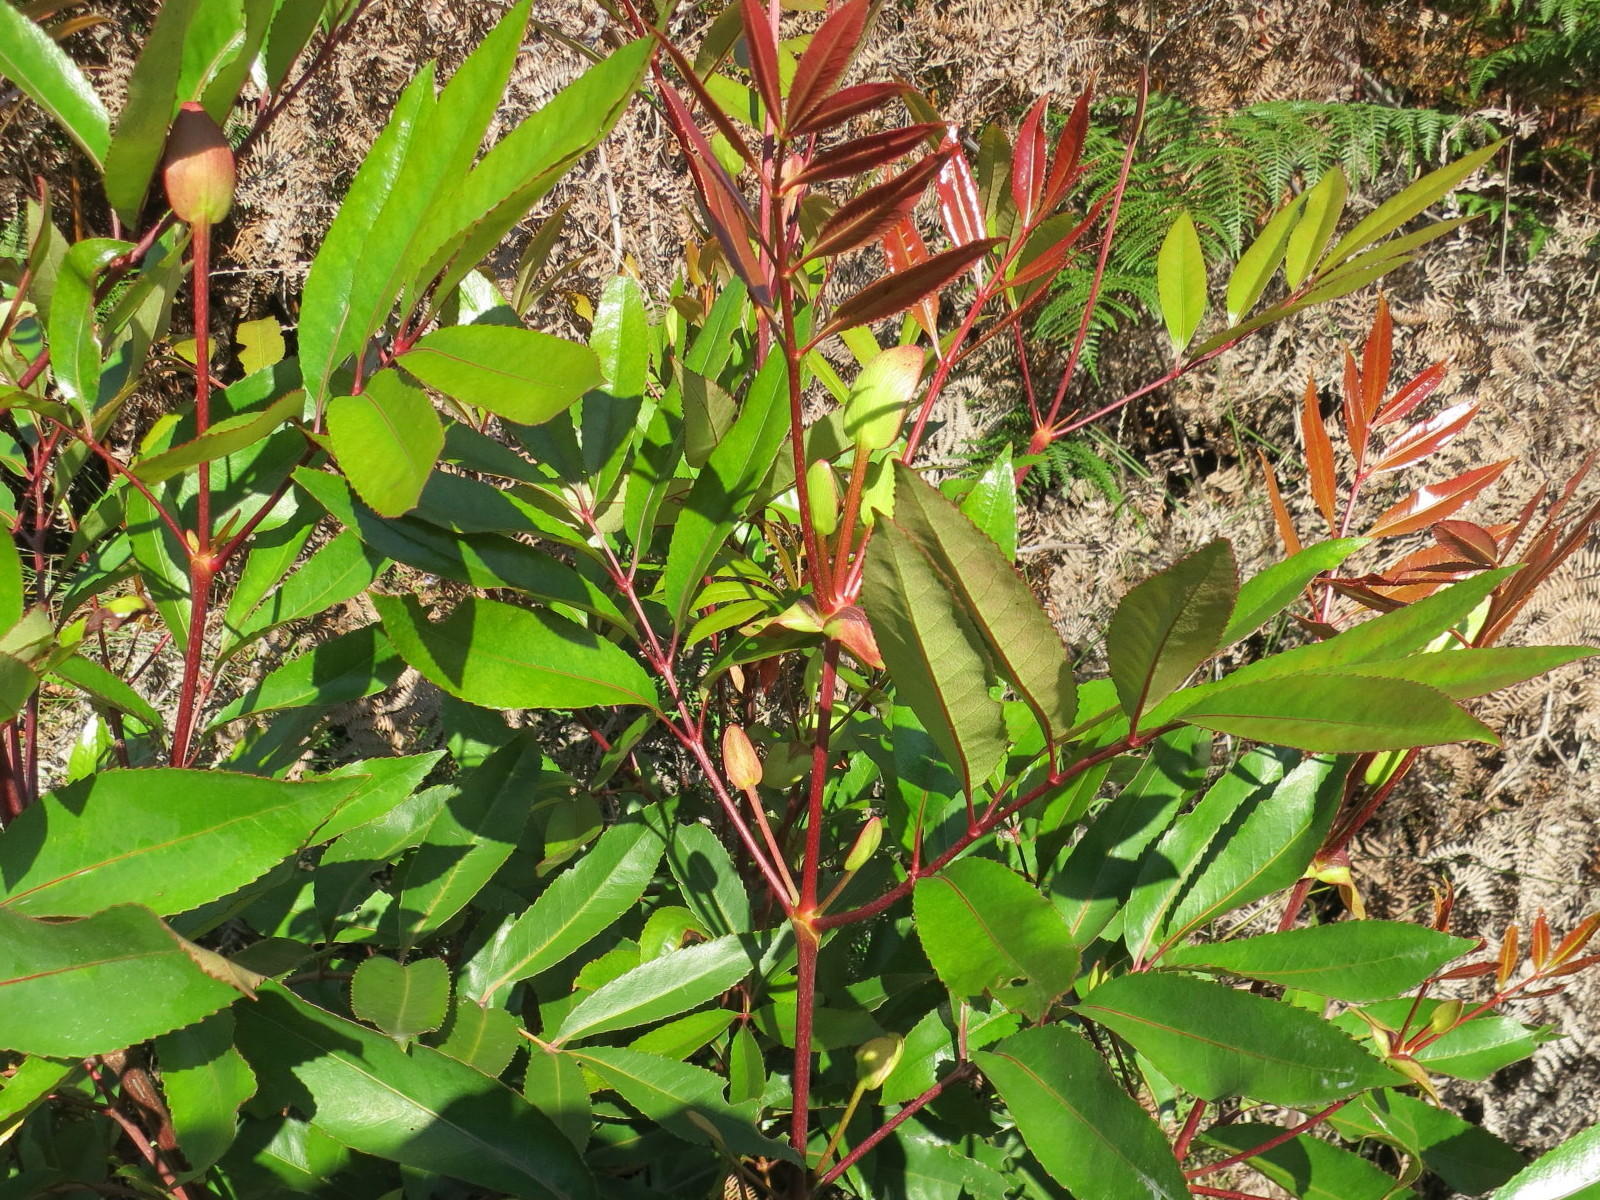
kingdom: Plantae
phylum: Tracheophyta
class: Magnoliopsida
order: Oxalidales
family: Cunoniaceae
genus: Cunonia
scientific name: Cunonia capensis
